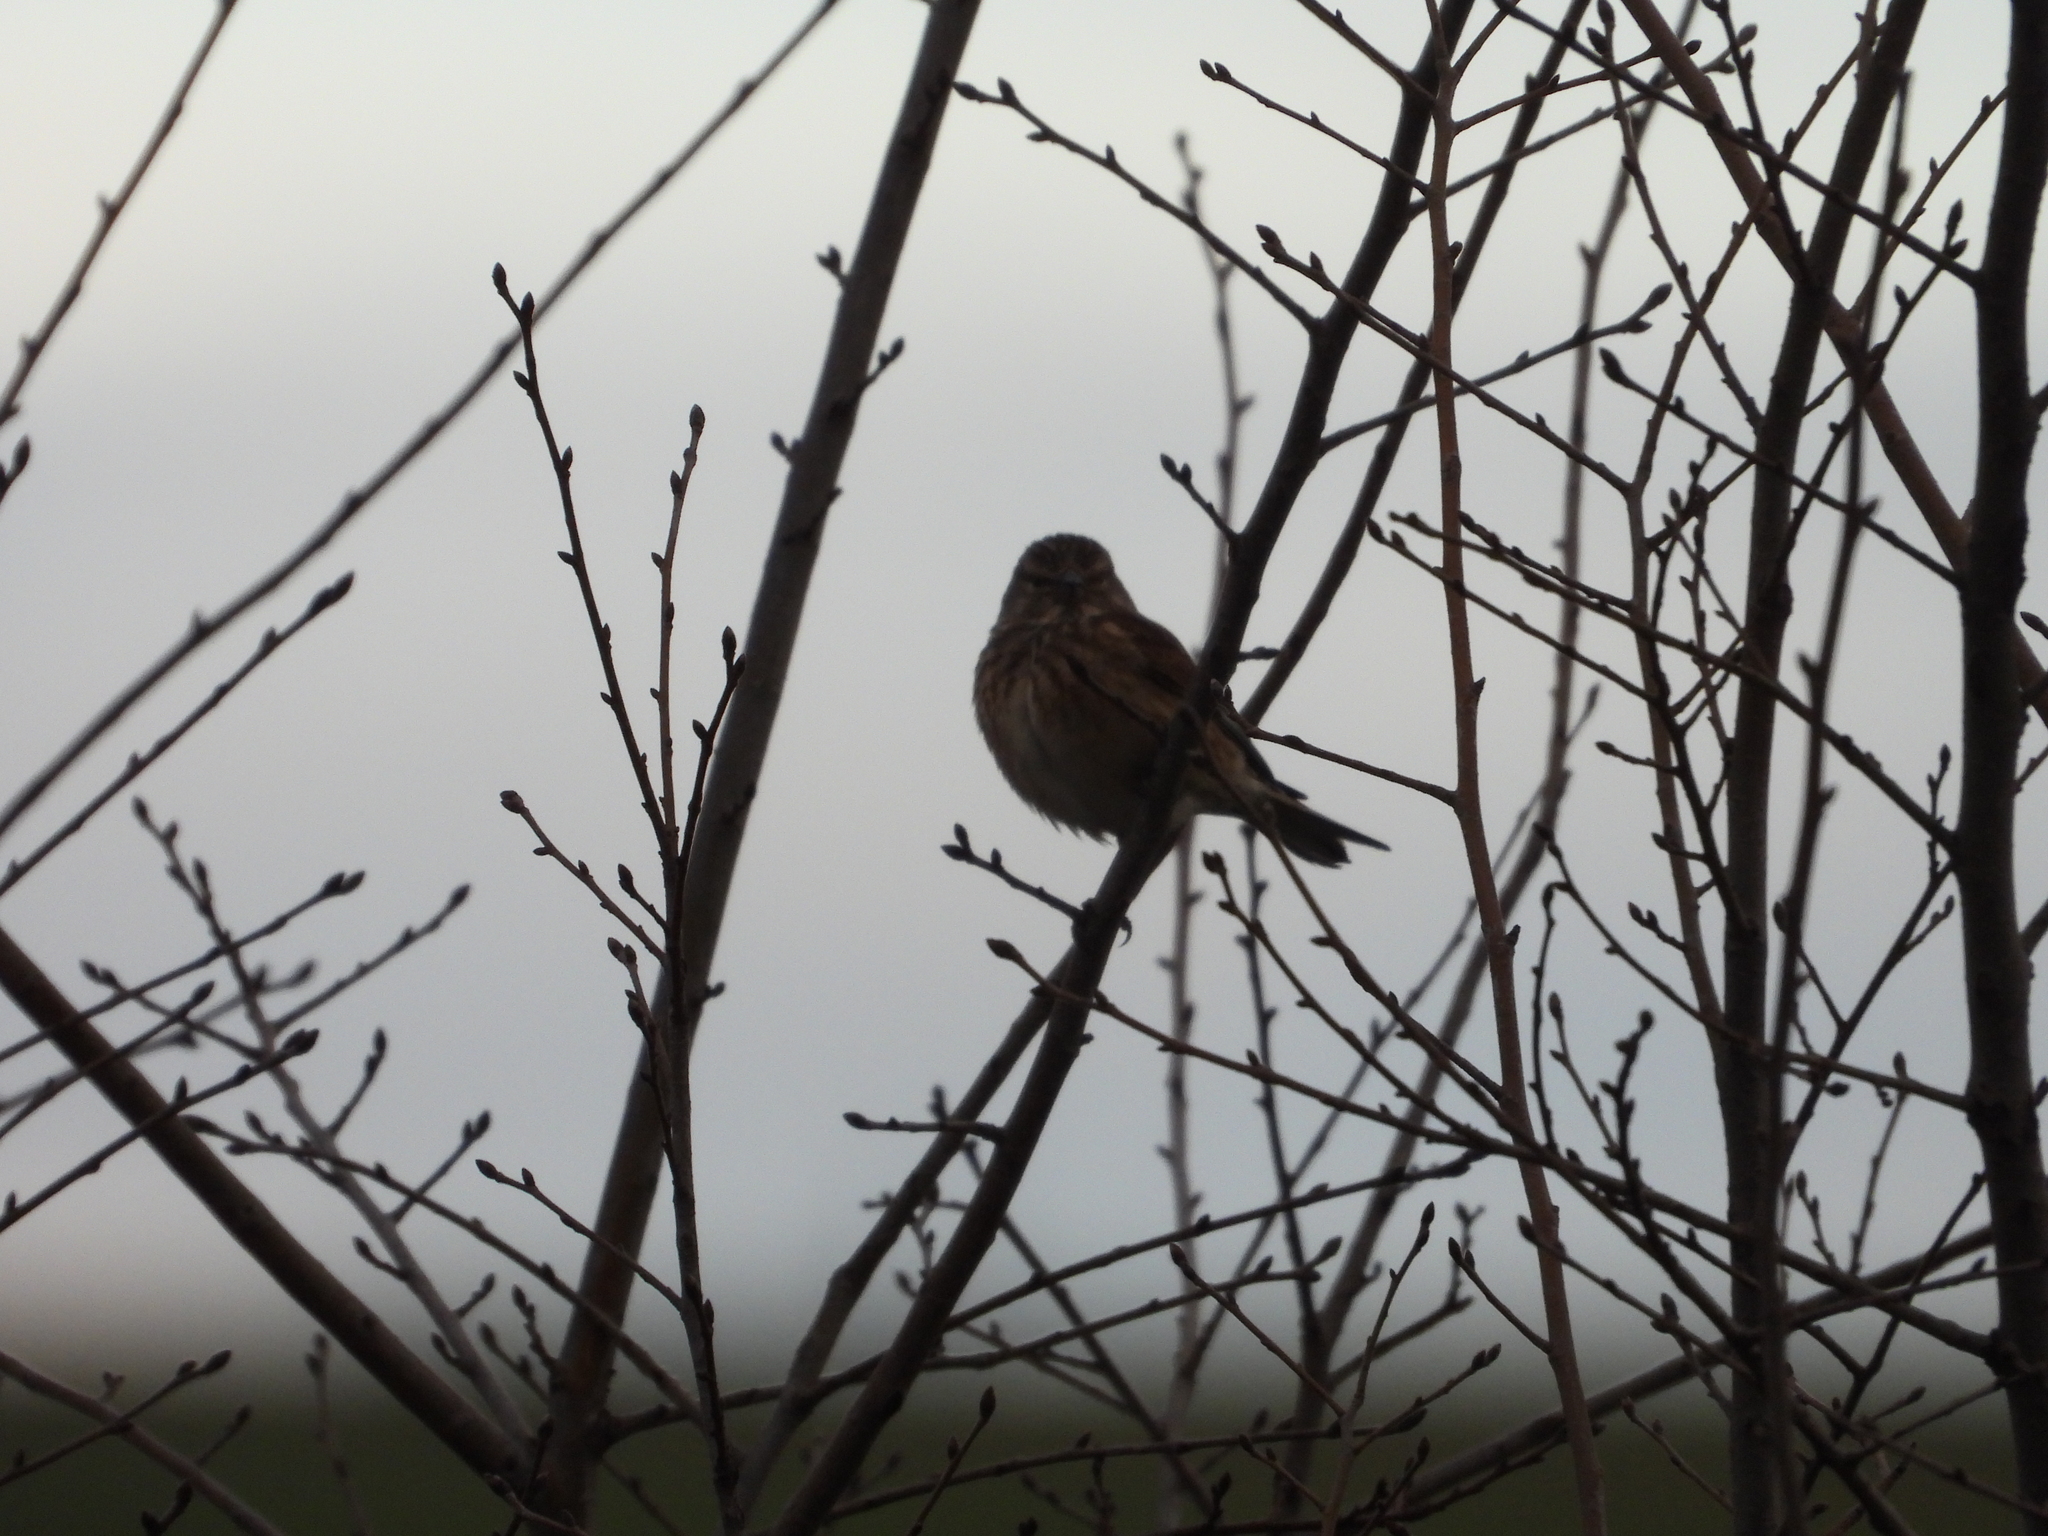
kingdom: Animalia
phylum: Chordata
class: Aves
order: Passeriformes
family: Fringillidae
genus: Linaria
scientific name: Linaria cannabina
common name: Common linnet
